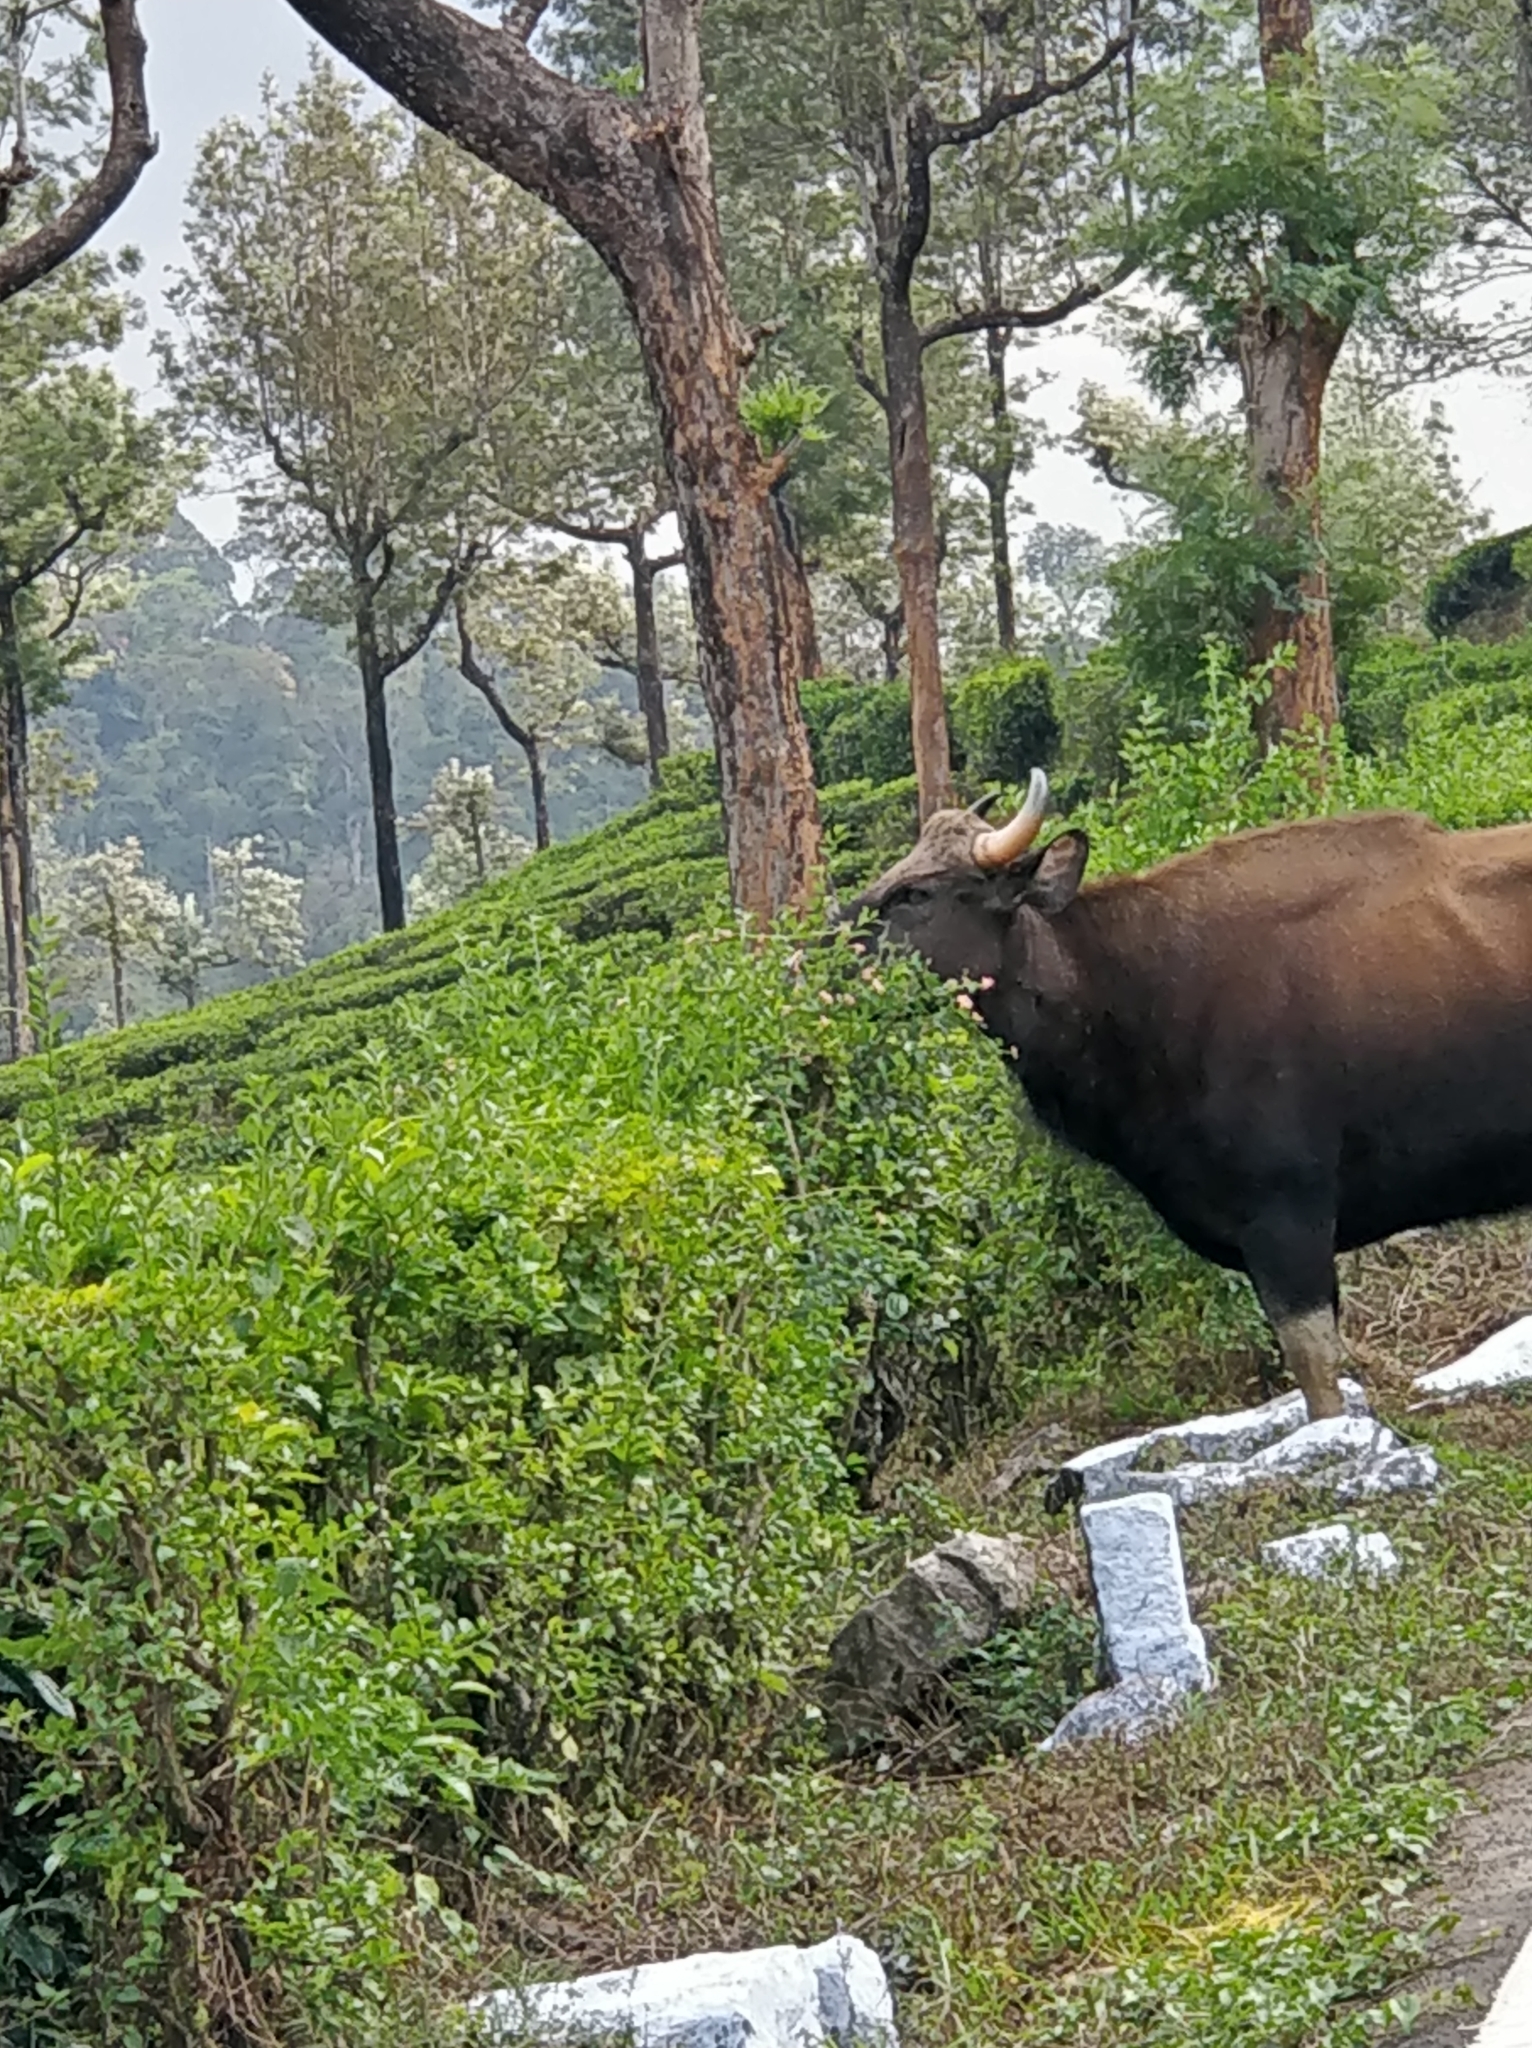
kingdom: Animalia
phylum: Chordata
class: Mammalia
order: Artiodactyla
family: Bovidae
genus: Bos
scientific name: Bos frontalis
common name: Gaur
